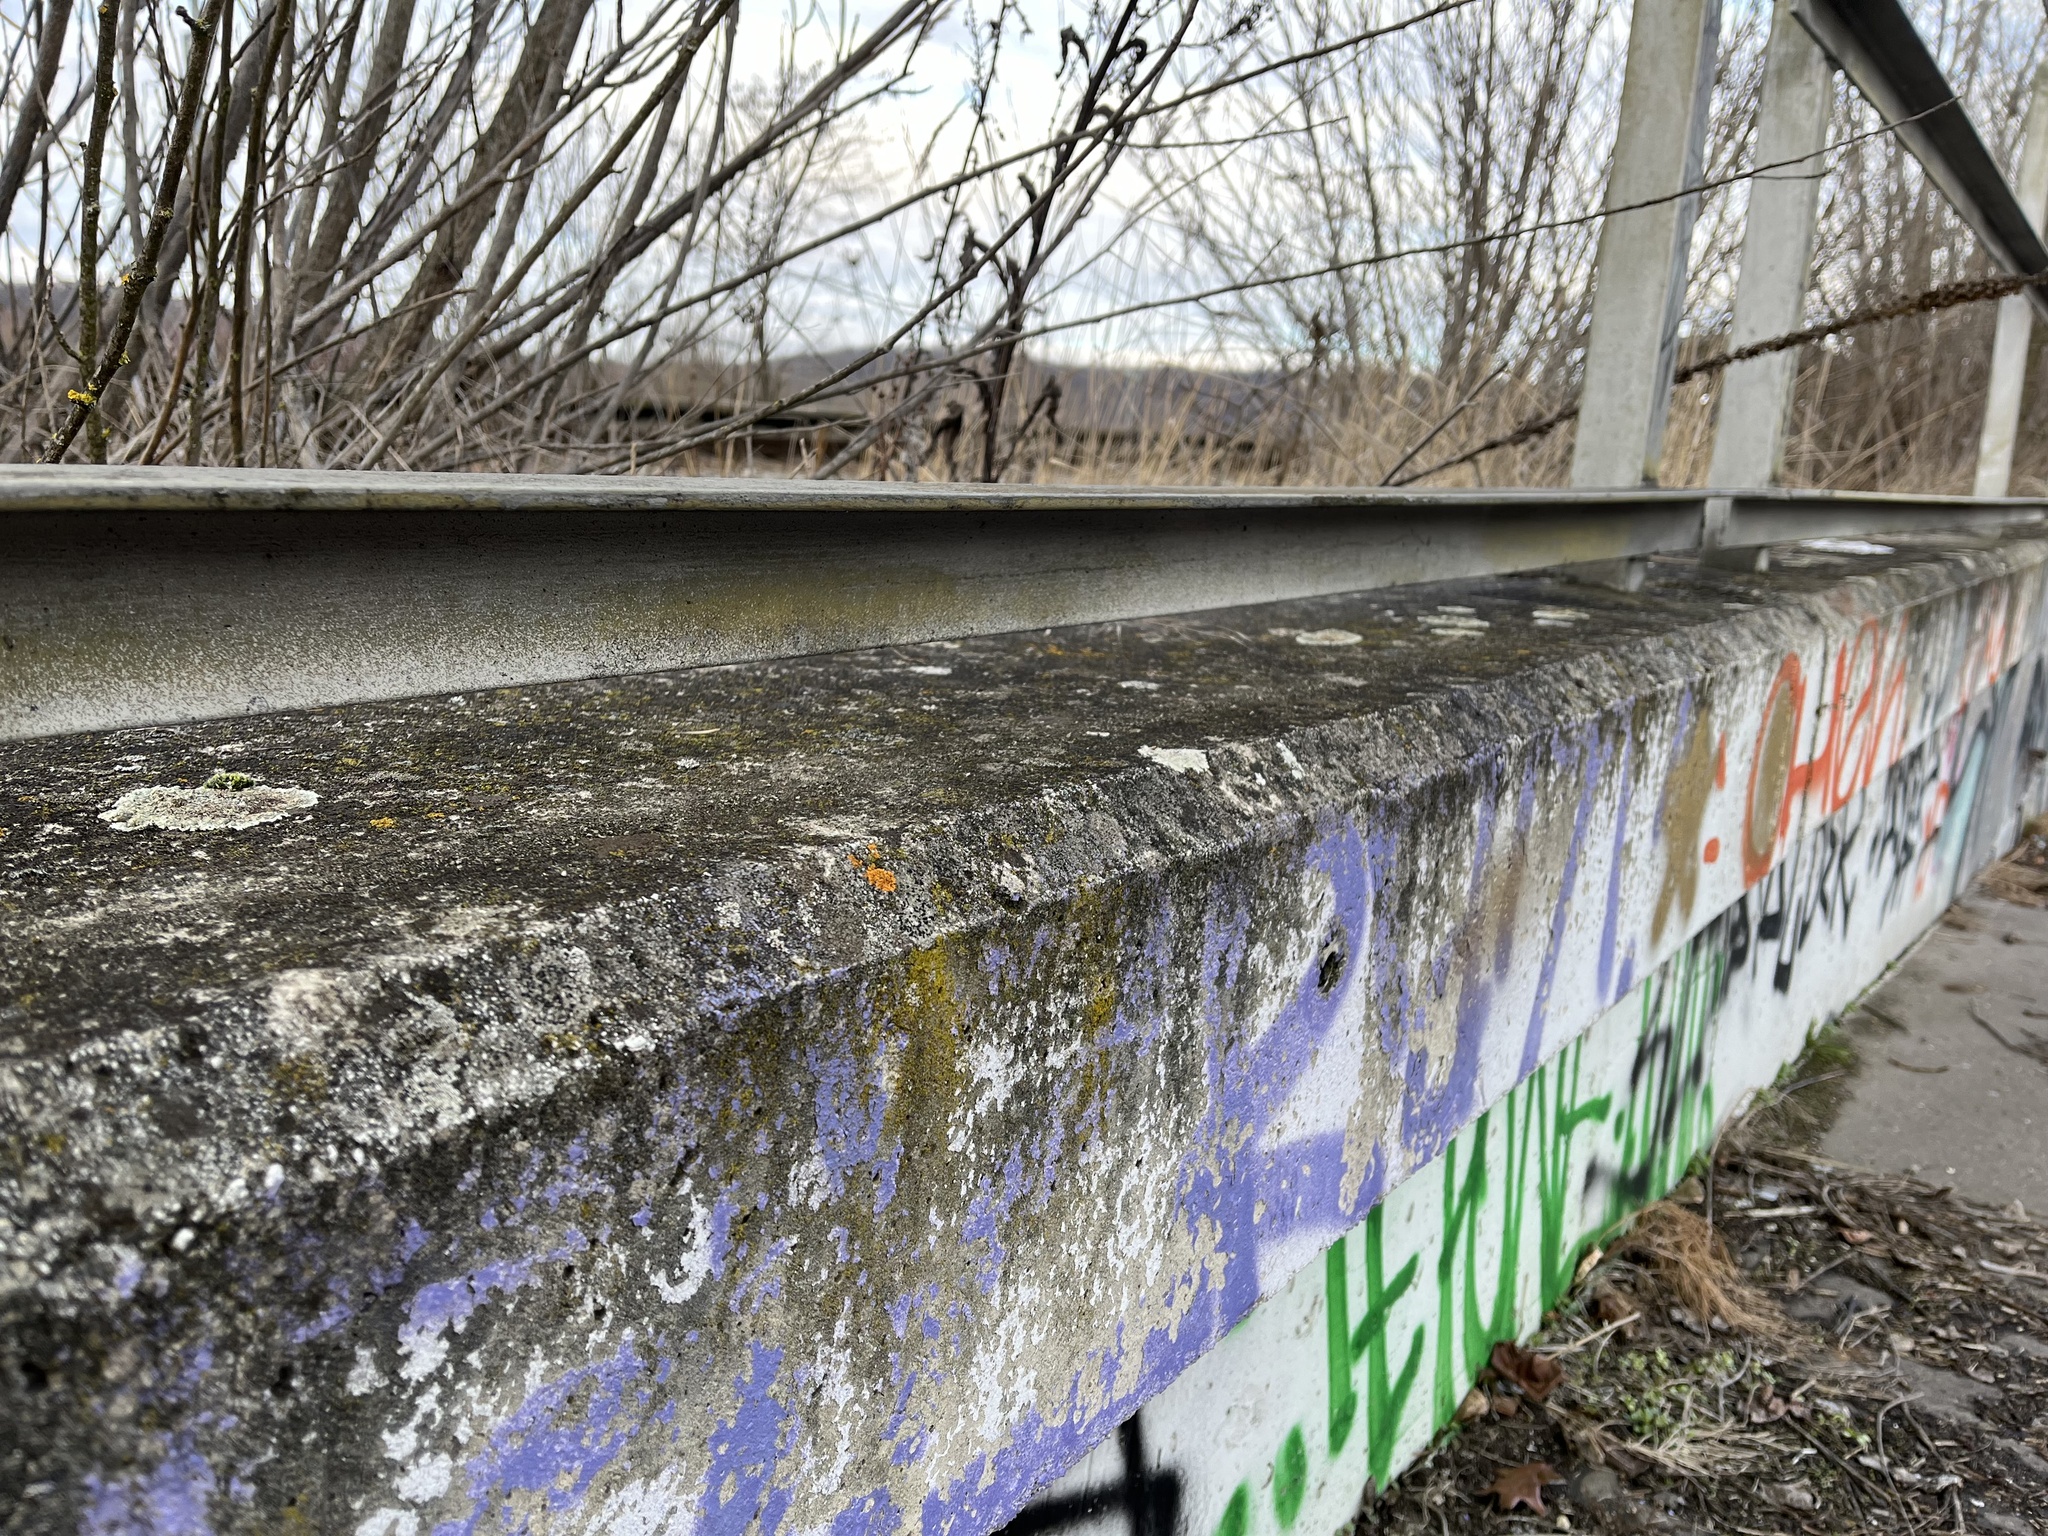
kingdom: Fungi
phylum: Ascomycota
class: Lecanoromycetes
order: Teloschistales
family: Teloschistaceae
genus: Xanthoria
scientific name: Xanthoria elegans
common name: Elegant sunburst lichen
